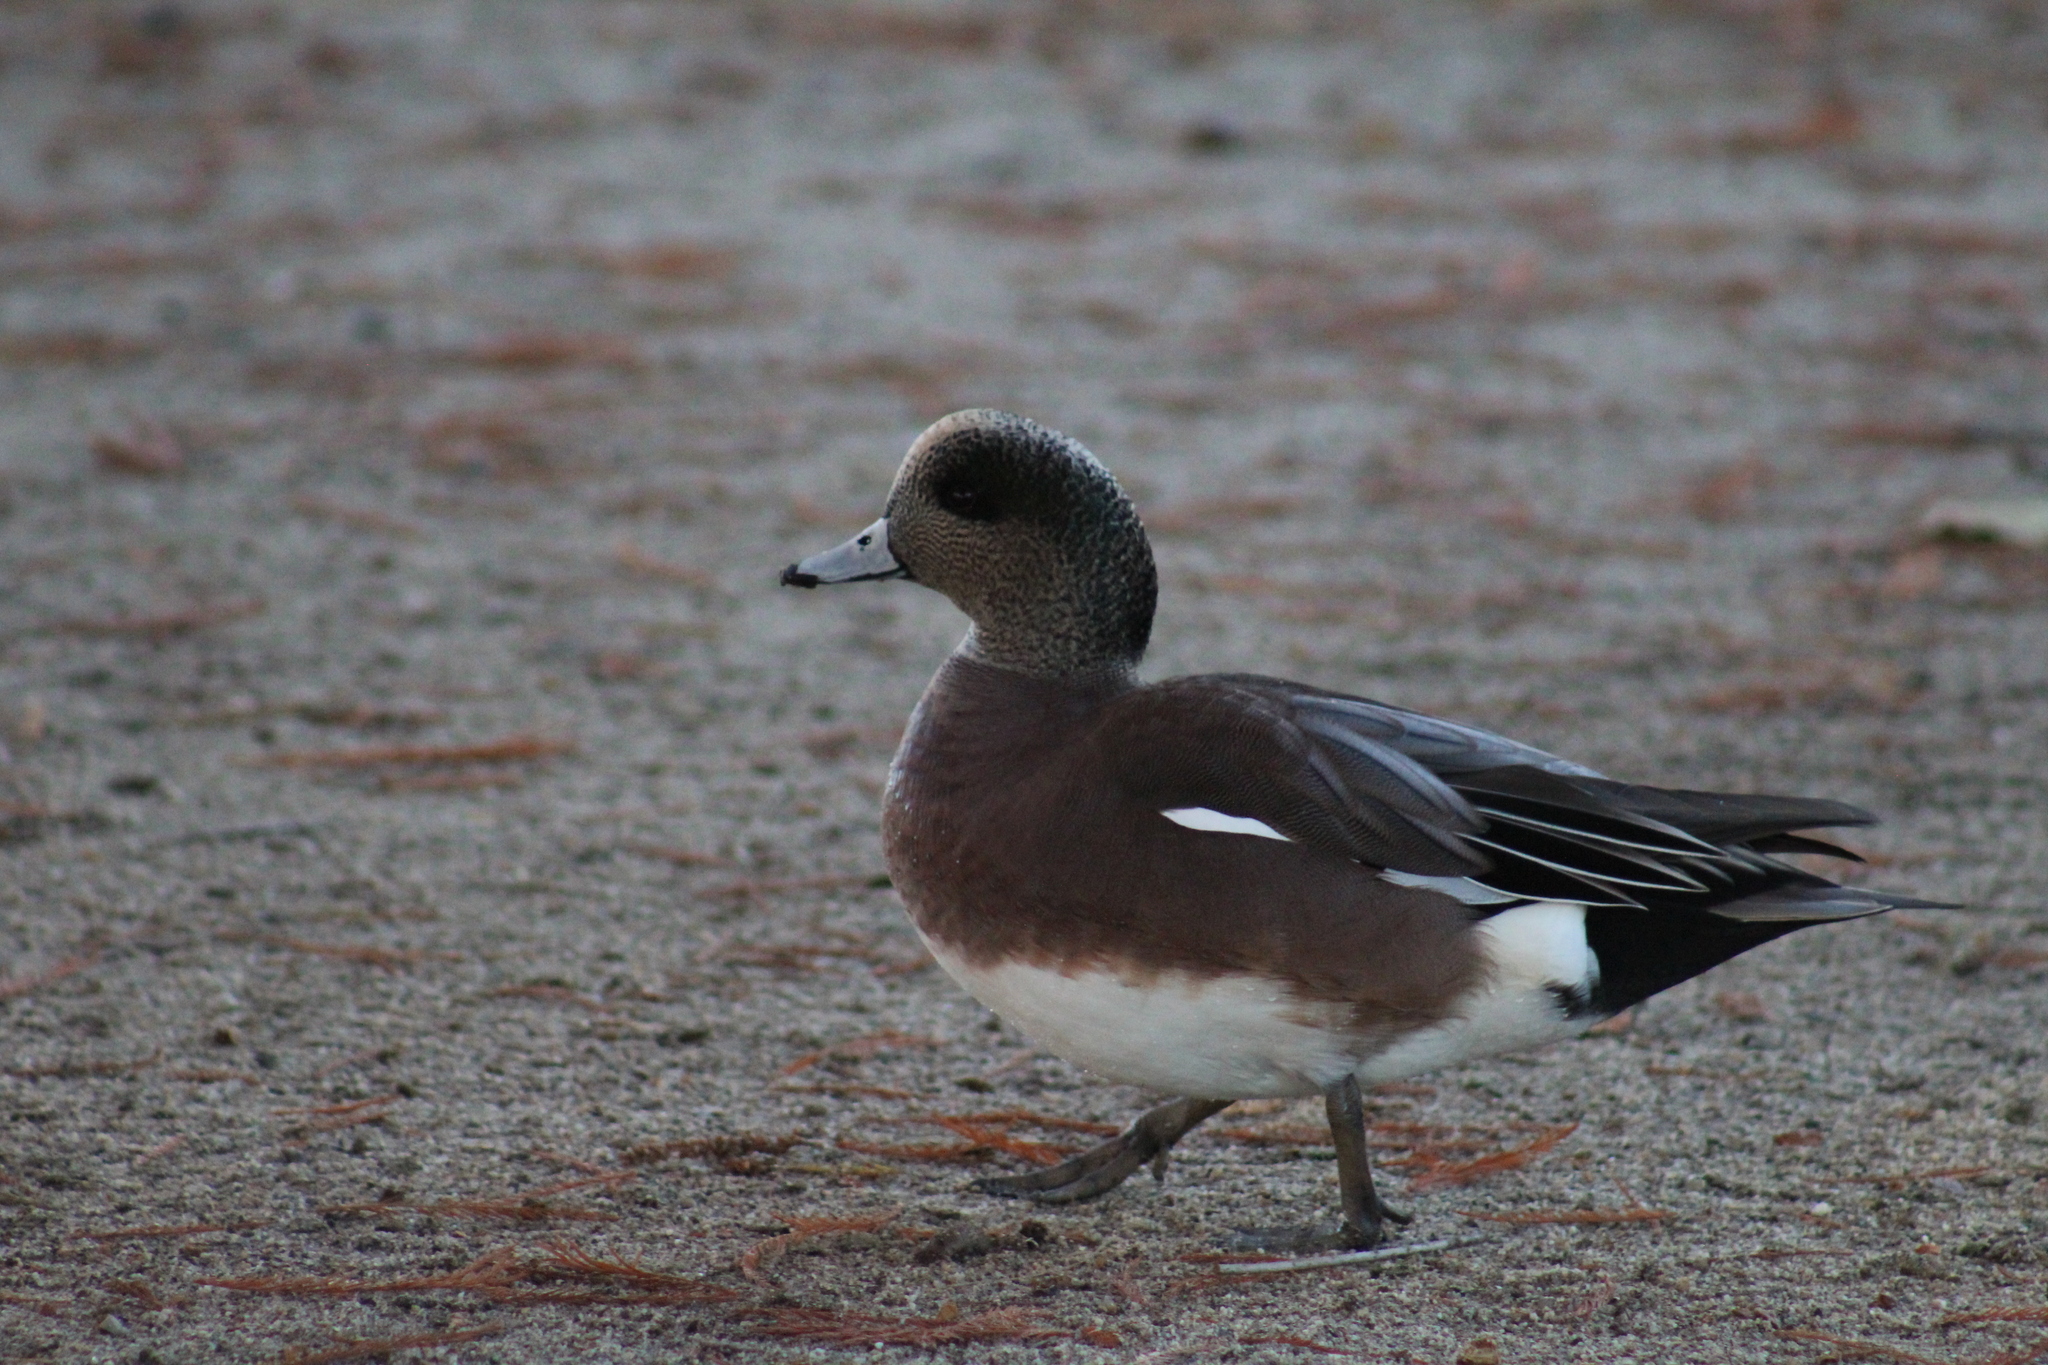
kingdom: Animalia
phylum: Chordata
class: Aves
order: Anseriformes
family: Anatidae
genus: Mareca
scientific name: Mareca americana
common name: American wigeon
